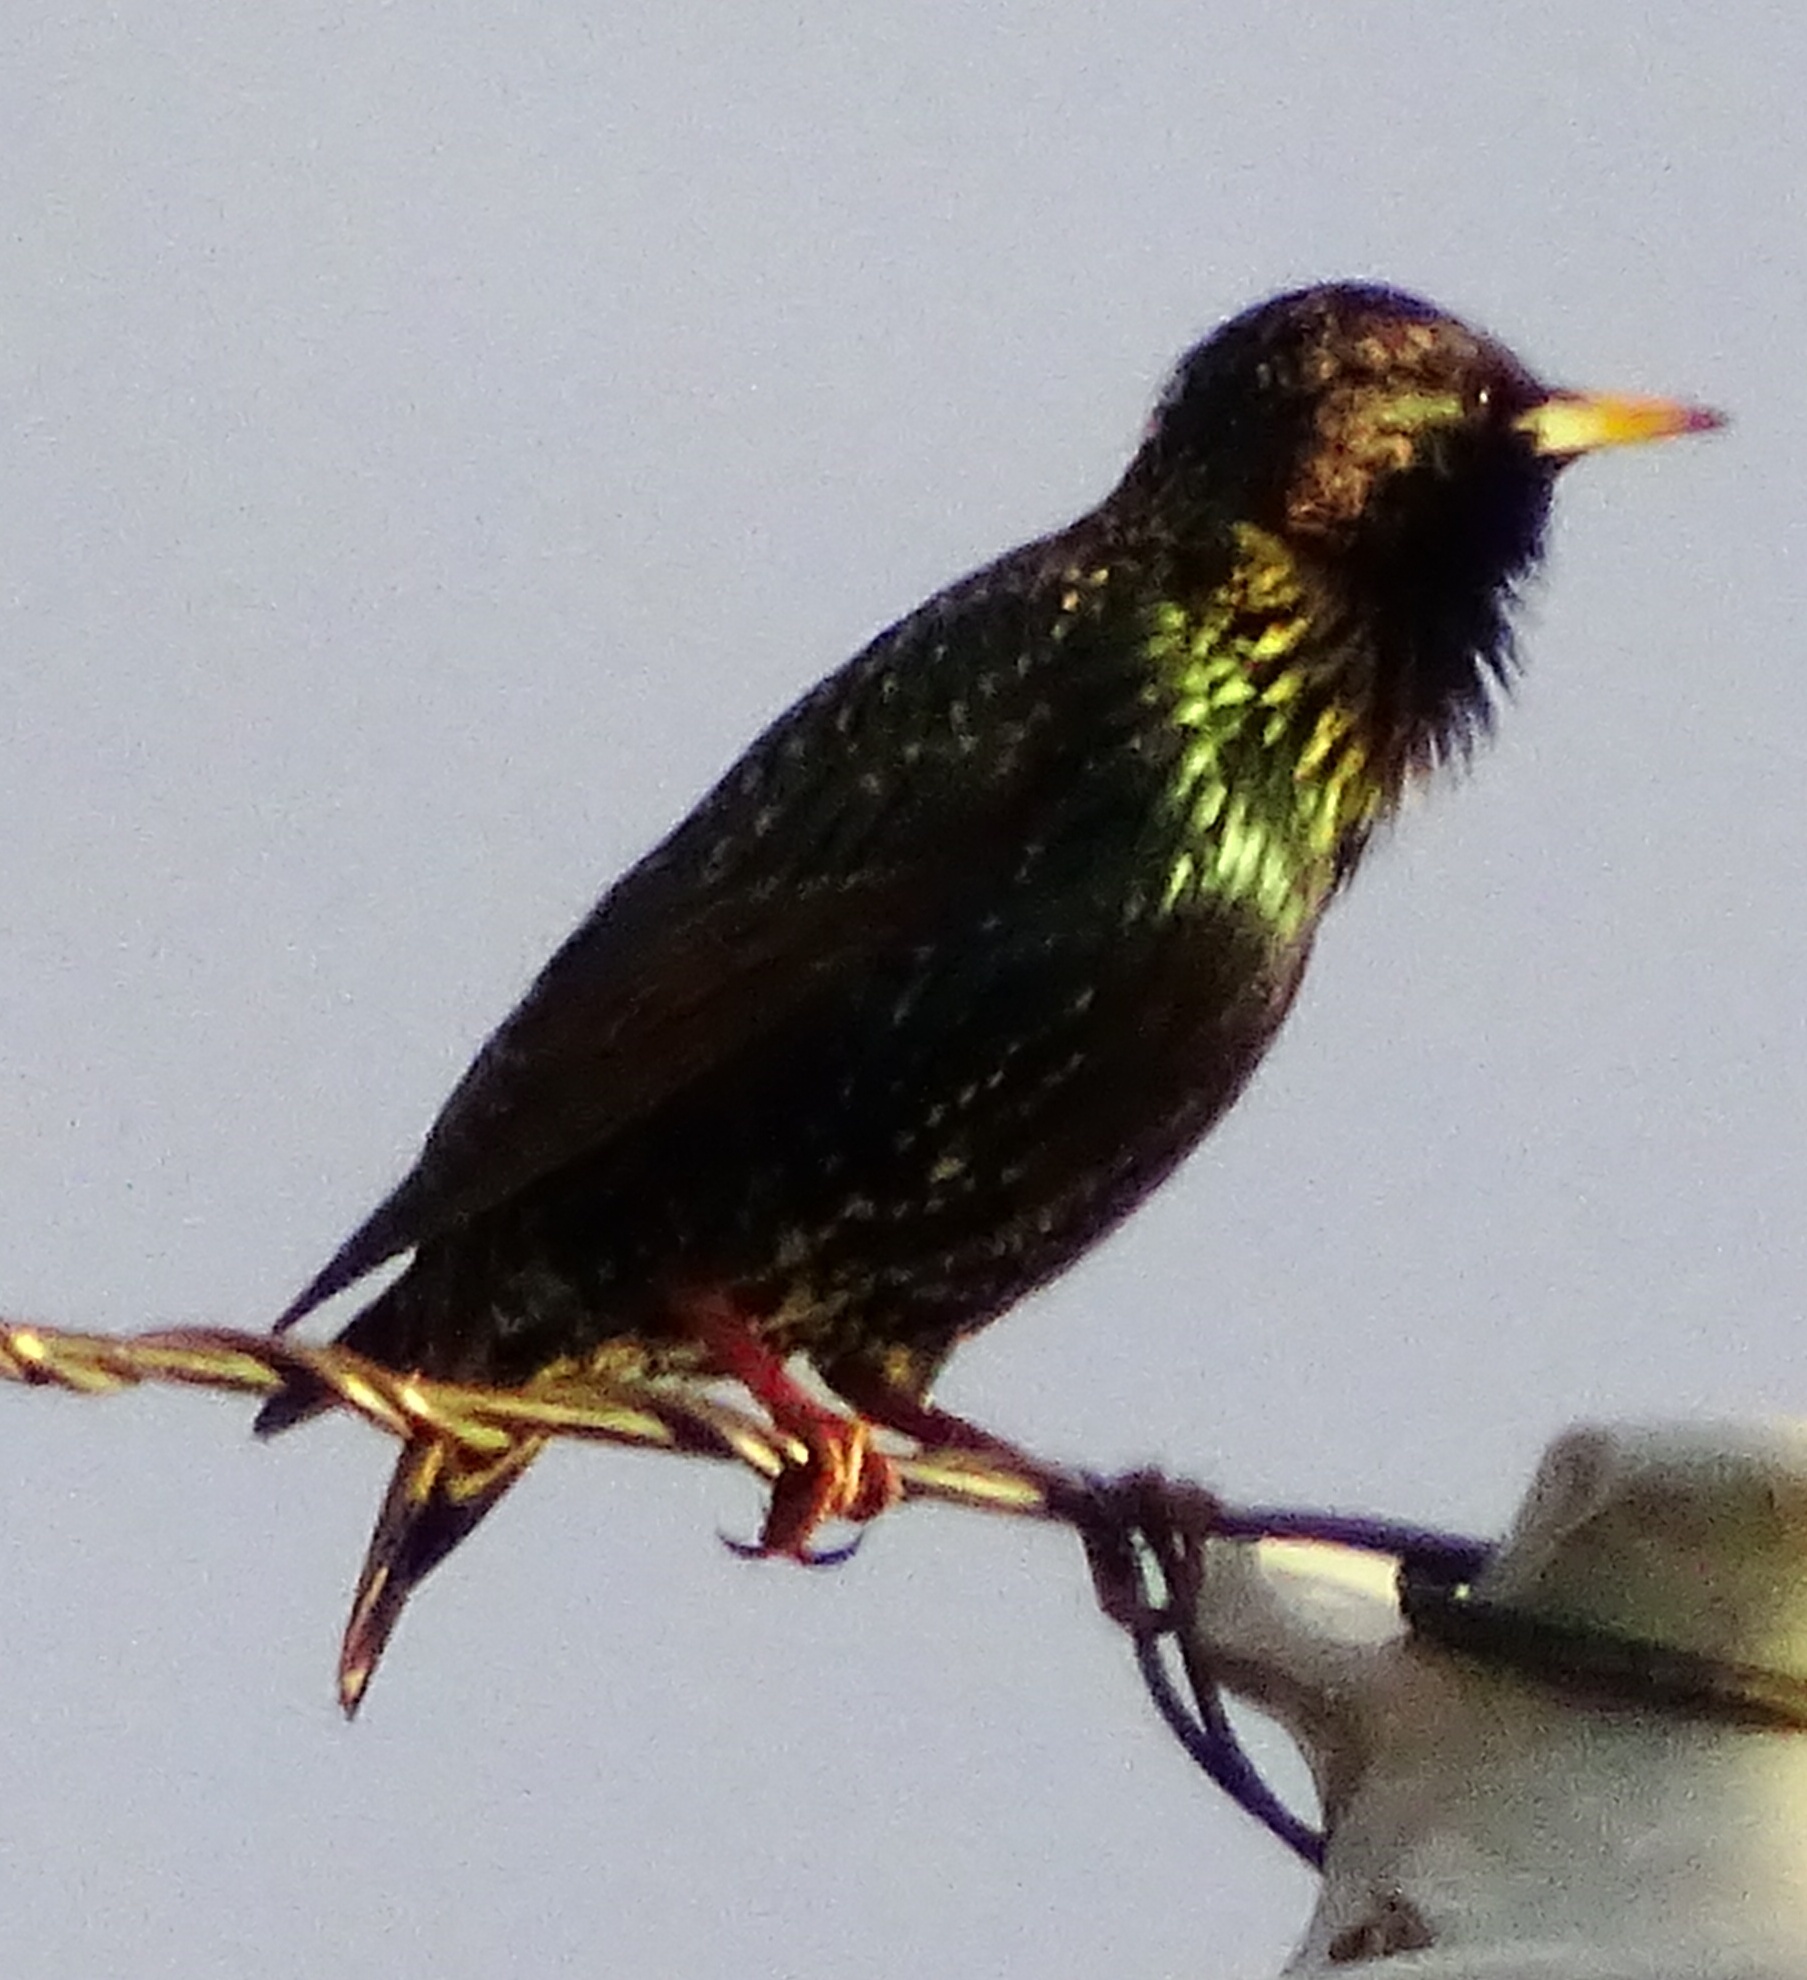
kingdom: Animalia
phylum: Chordata
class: Aves
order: Passeriformes
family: Sturnidae
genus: Sturnus
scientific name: Sturnus vulgaris
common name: Common starling
